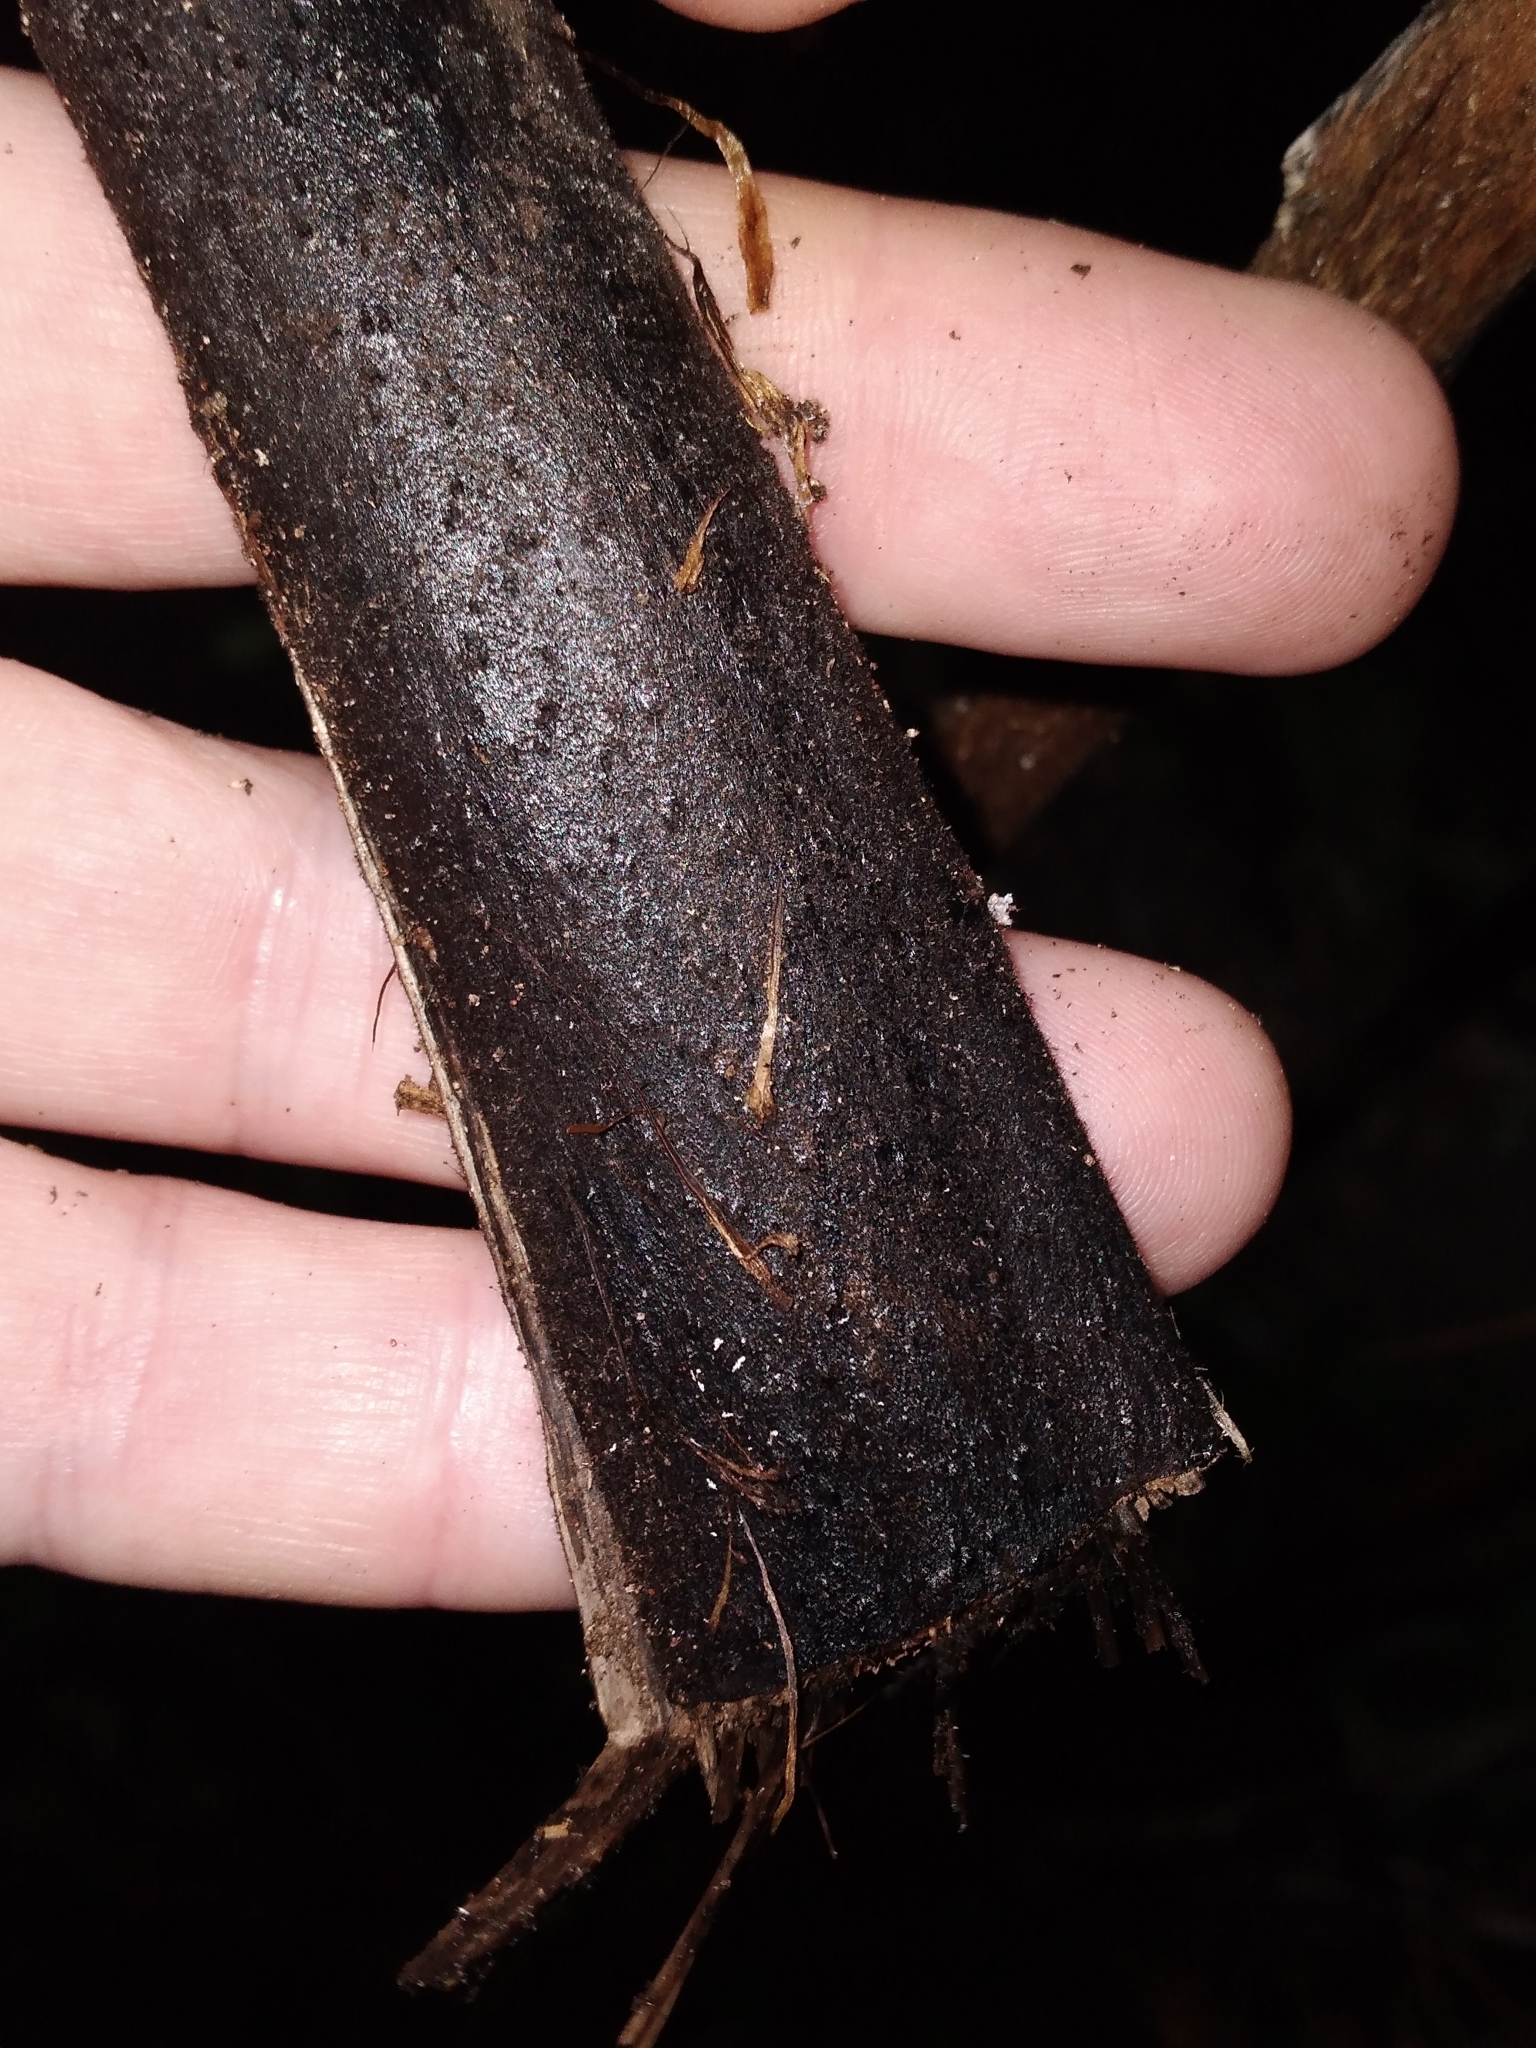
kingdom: Plantae
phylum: Tracheophyta
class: Polypodiopsida
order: Cyatheales
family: Cyatheaceae
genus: Cyathea
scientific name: Cyathea cunninghamii
